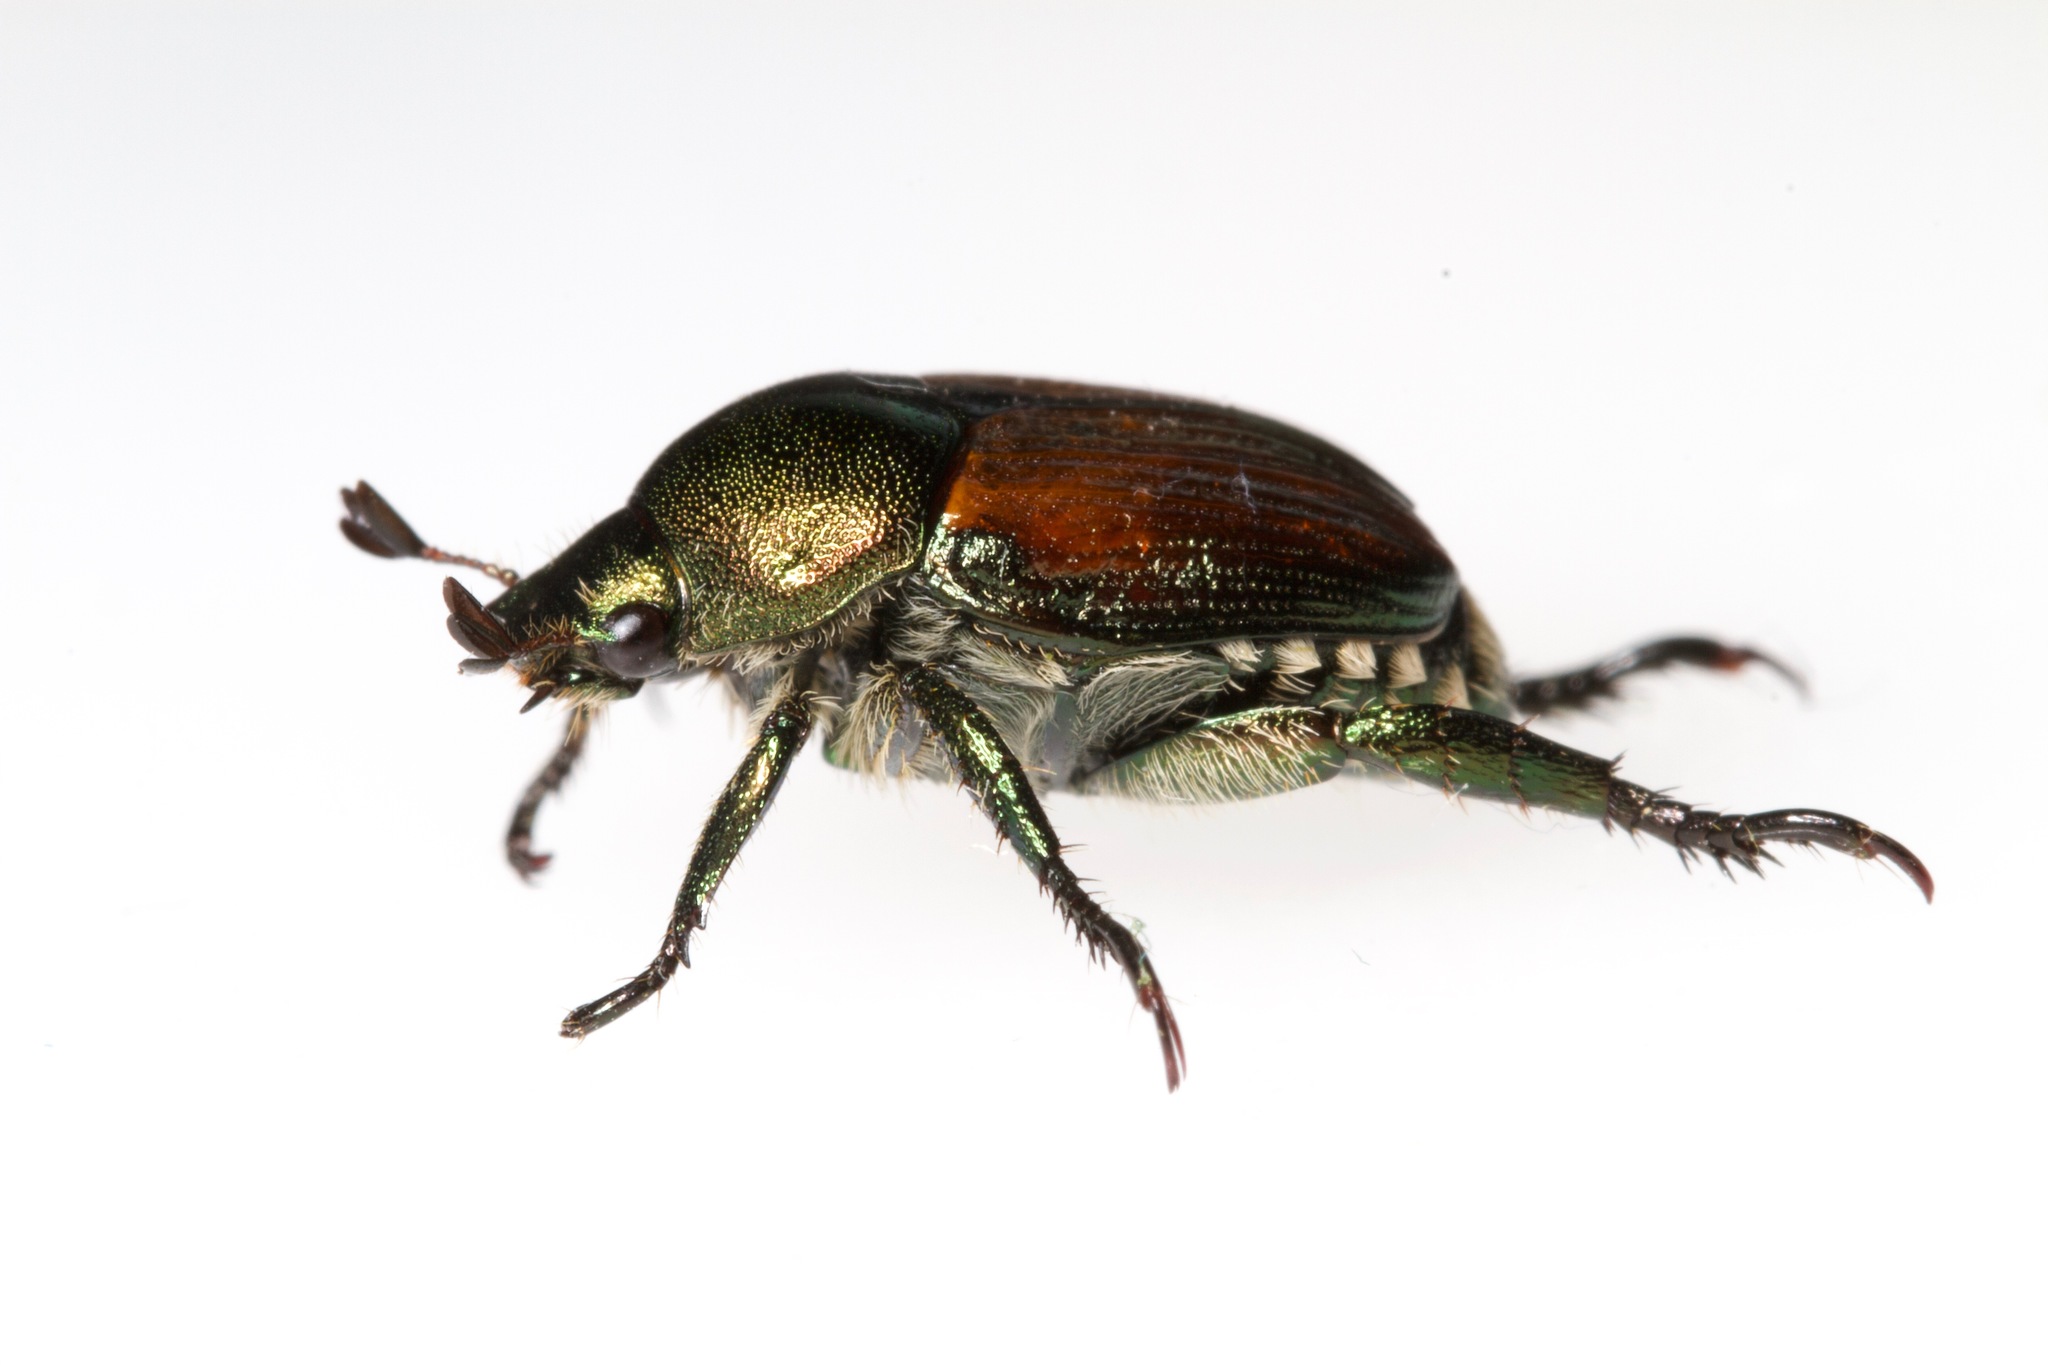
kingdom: Animalia
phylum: Arthropoda
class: Insecta
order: Coleoptera
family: Scarabaeidae
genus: Popillia
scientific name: Popillia japonica
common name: Japanese beetle
